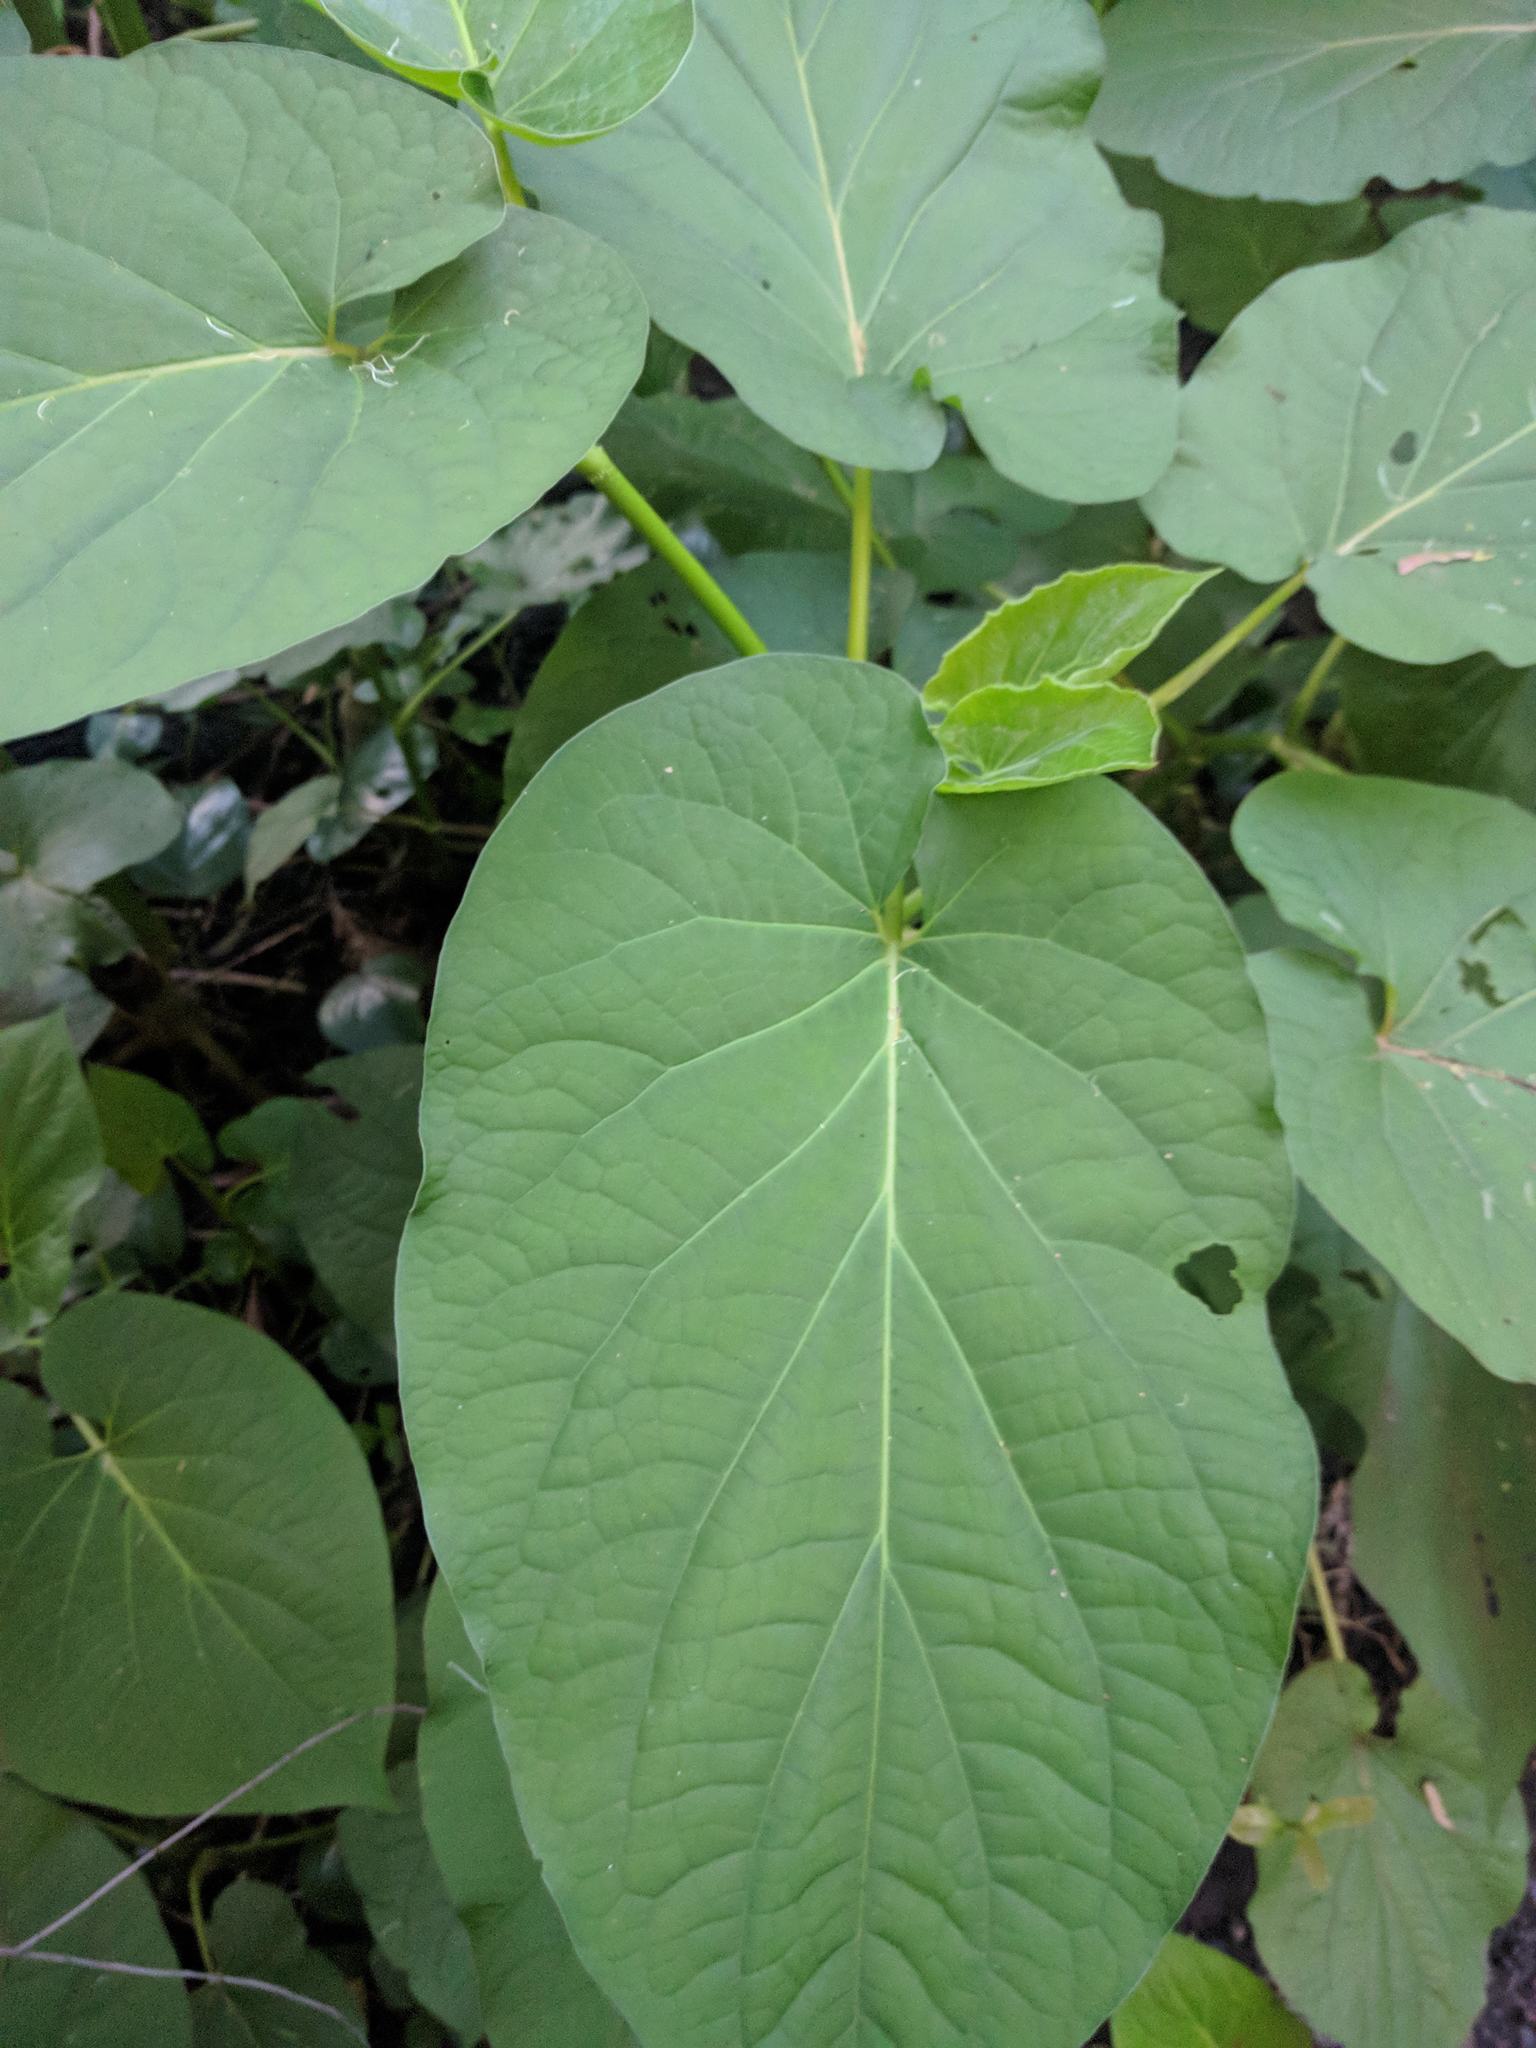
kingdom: Plantae
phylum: Tracheophyta
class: Magnoliopsida
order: Piperales
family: Piperaceae
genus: Piper
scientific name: Piper auritum
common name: Vera cruz pepper
